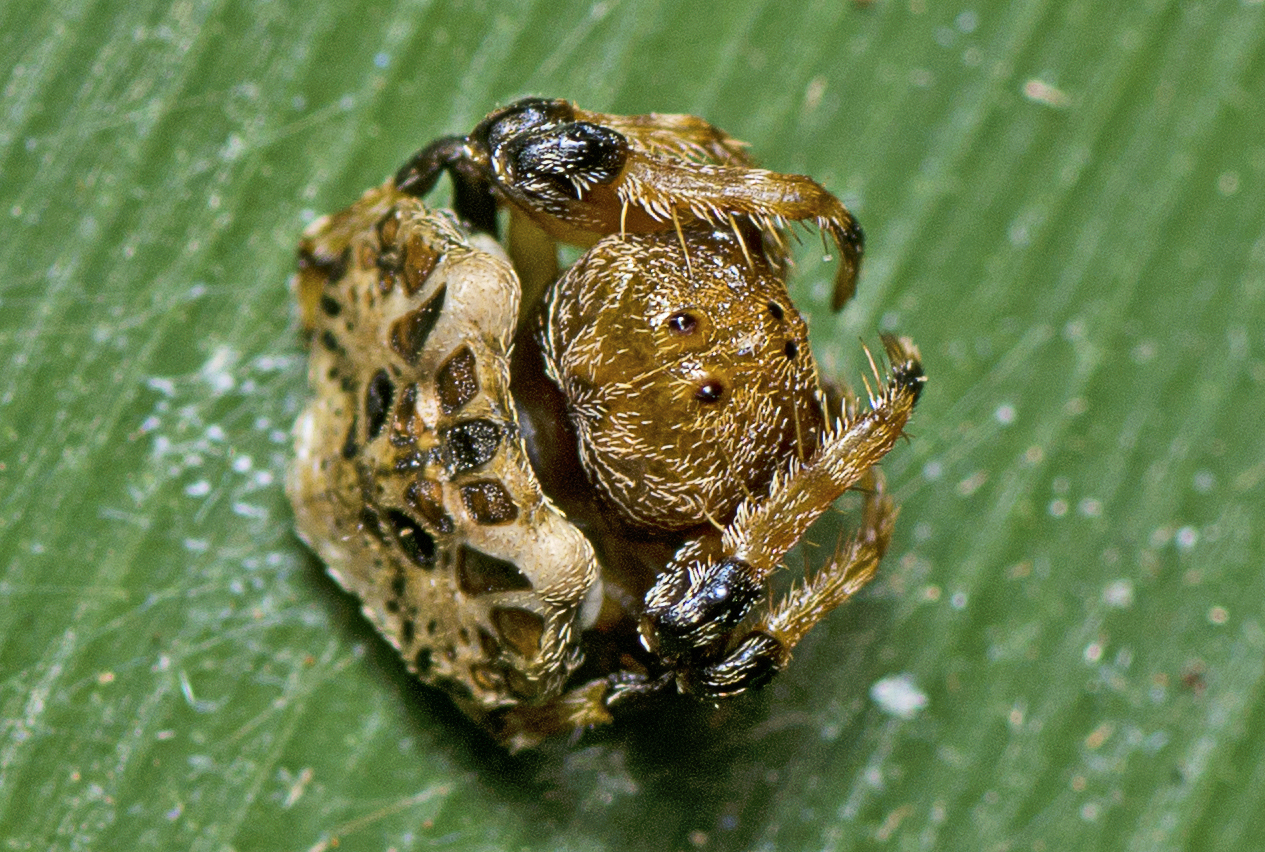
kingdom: Animalia
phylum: Arthropoda
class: Arachnida
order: Araneae
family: Arkyidae
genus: Arkys
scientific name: Arkys curtulus
